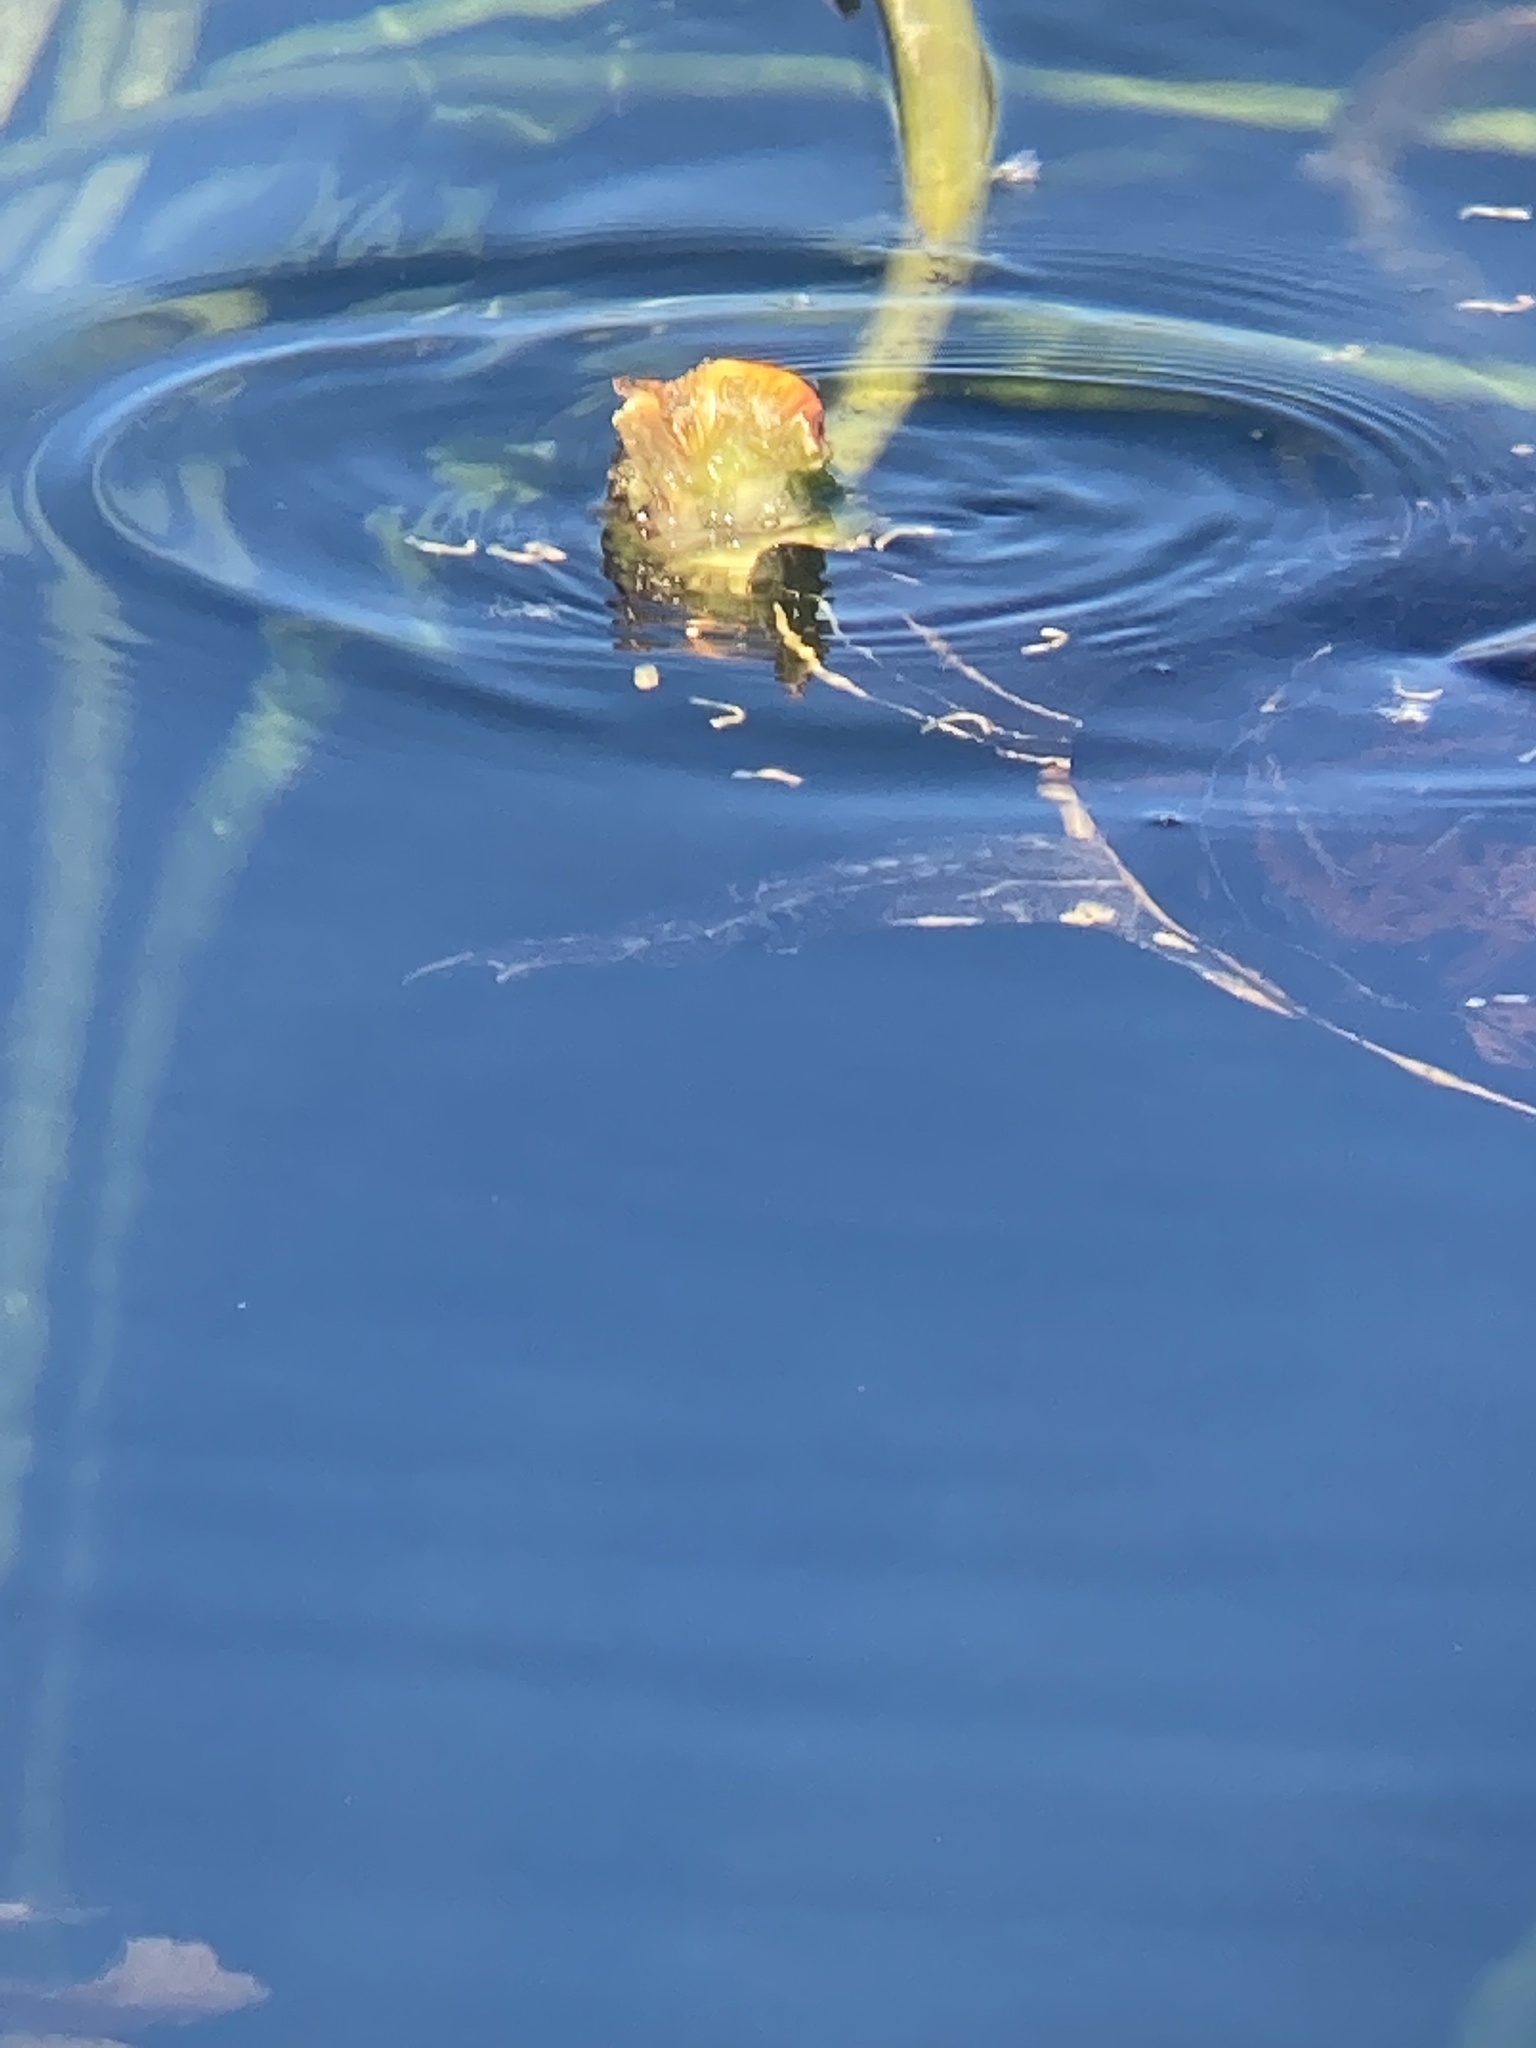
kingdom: Animalia
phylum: Chordata
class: Testudines
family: Emydidae
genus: Pseudemys
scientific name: Pseudemys nelsoni
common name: Florida red-bellied turtle
